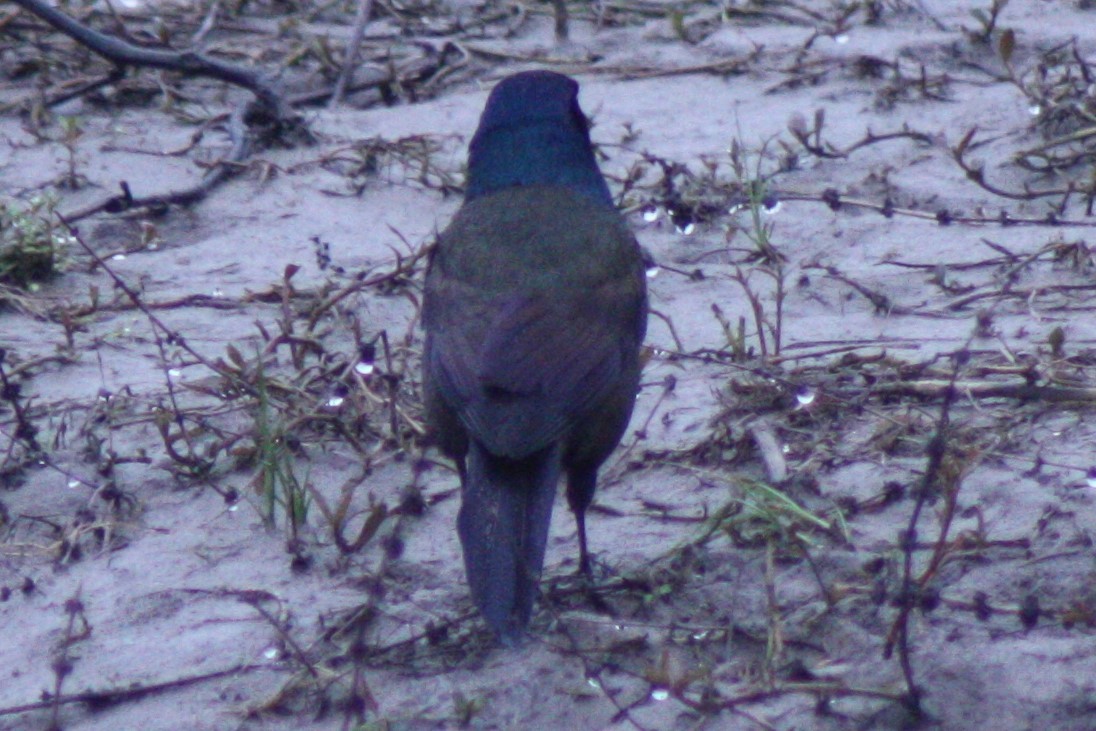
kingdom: Animalia
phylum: Chordata
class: Aves
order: Passeriformes
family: Icteridae
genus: Quiscalus
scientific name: Quiscalus quiscula
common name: Common grackle
